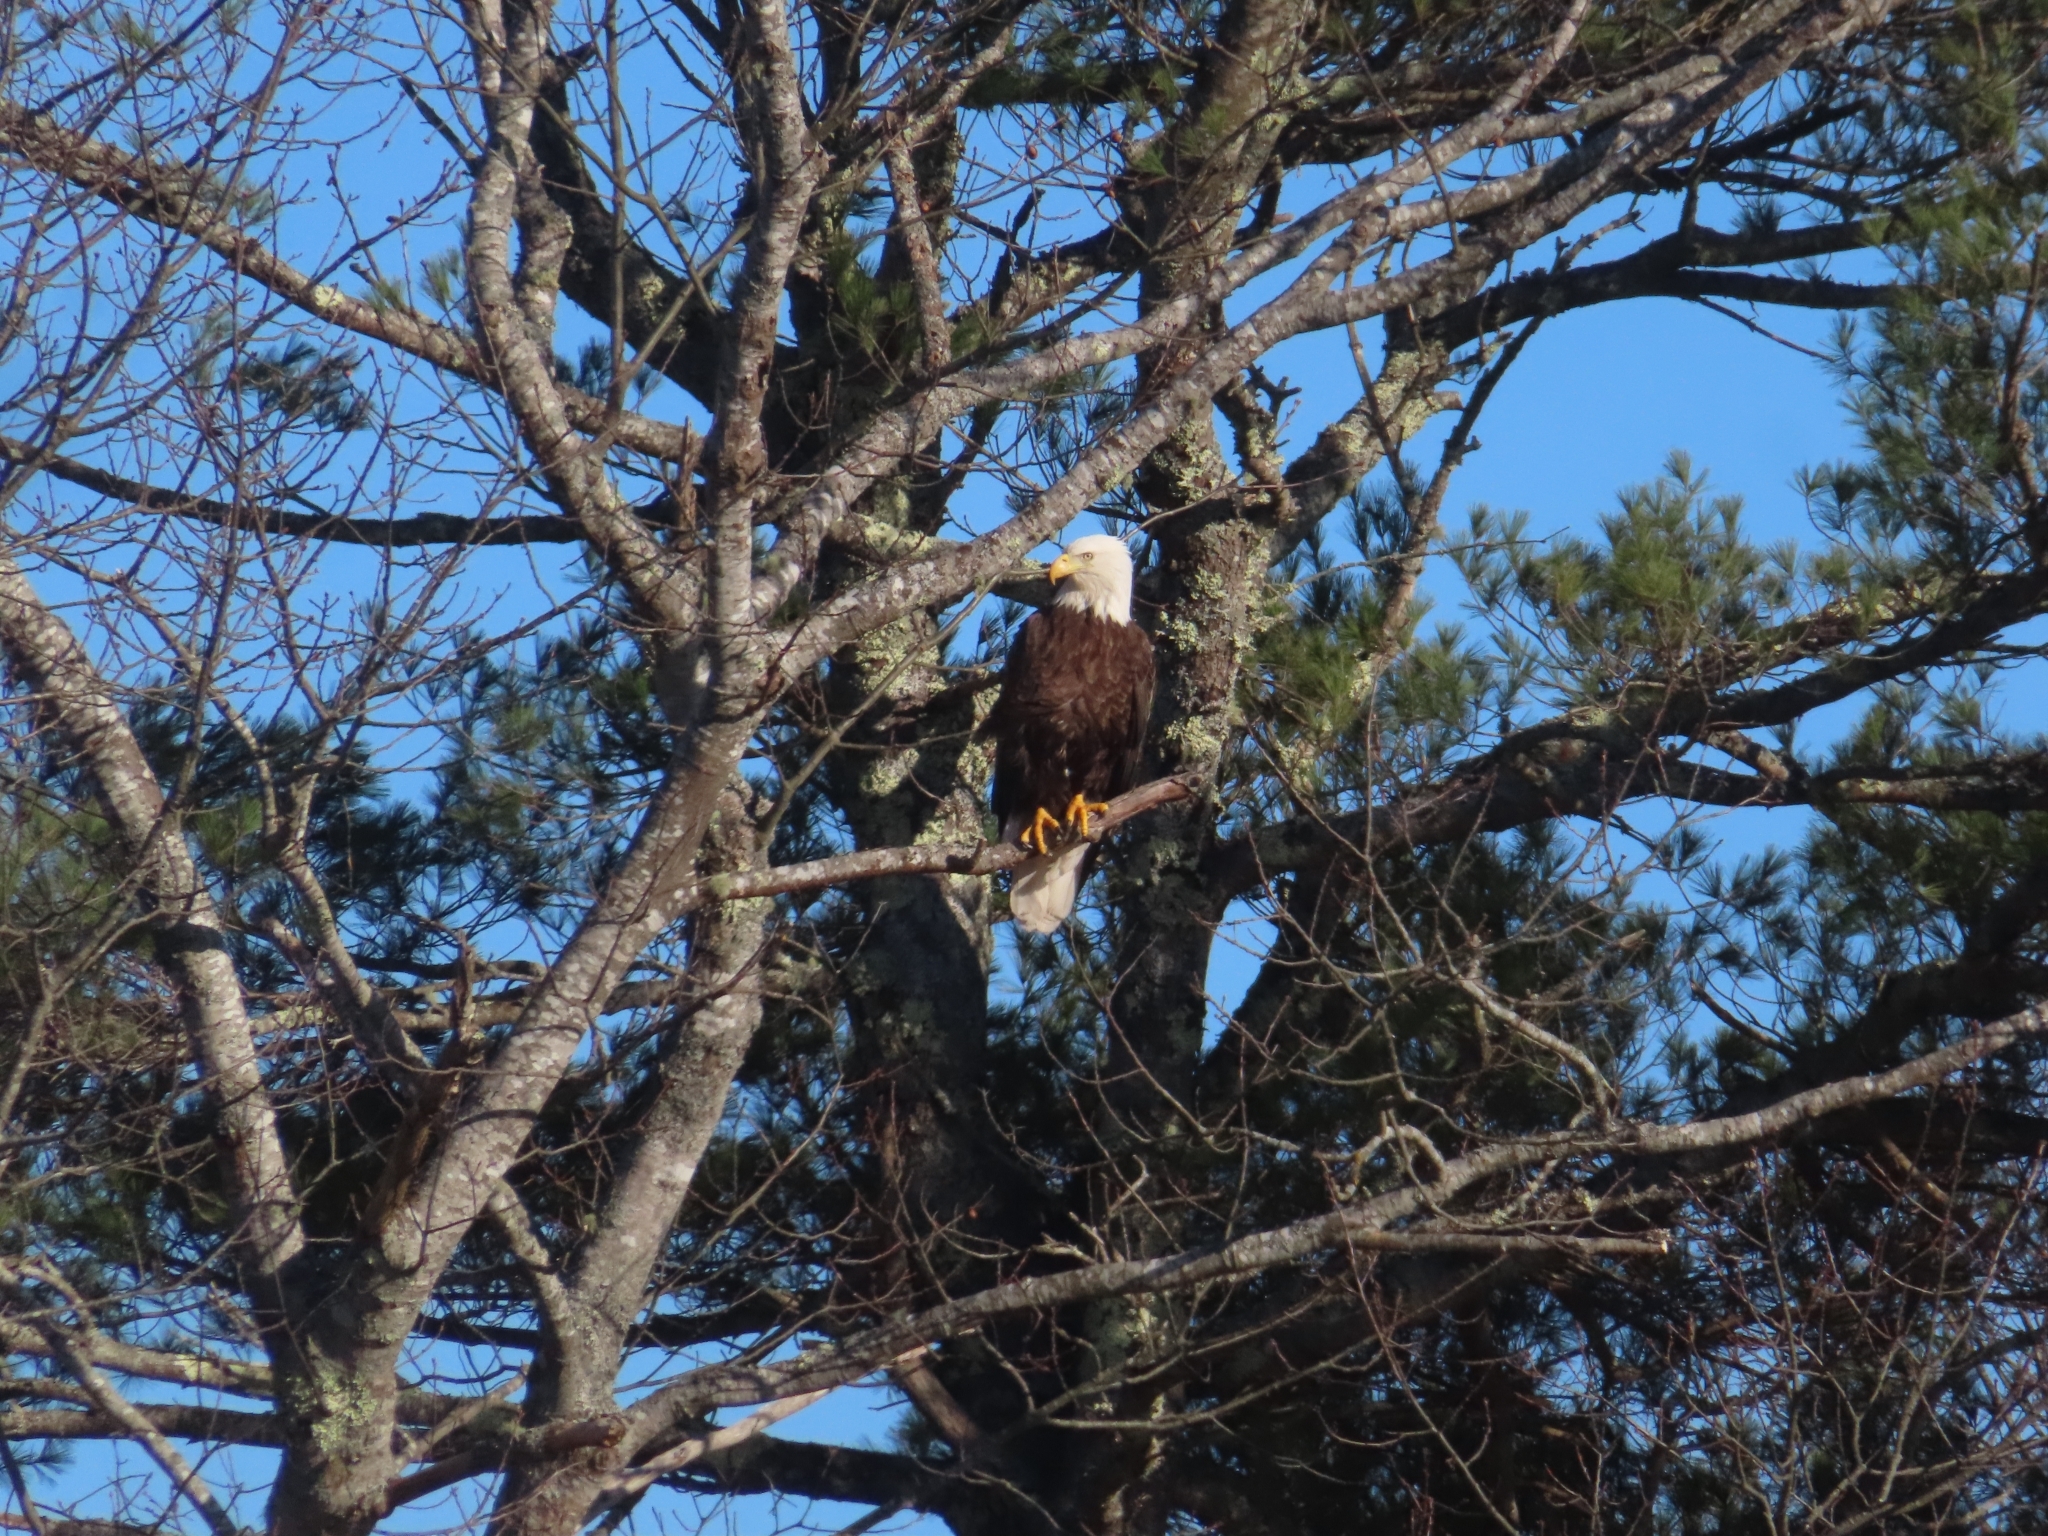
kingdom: Animalia
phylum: Chordata
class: Aves
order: Accipitriformes
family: Accipitridae
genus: Haliaeetus
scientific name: Haliaeetus leucocephalus
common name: Bald eagle
